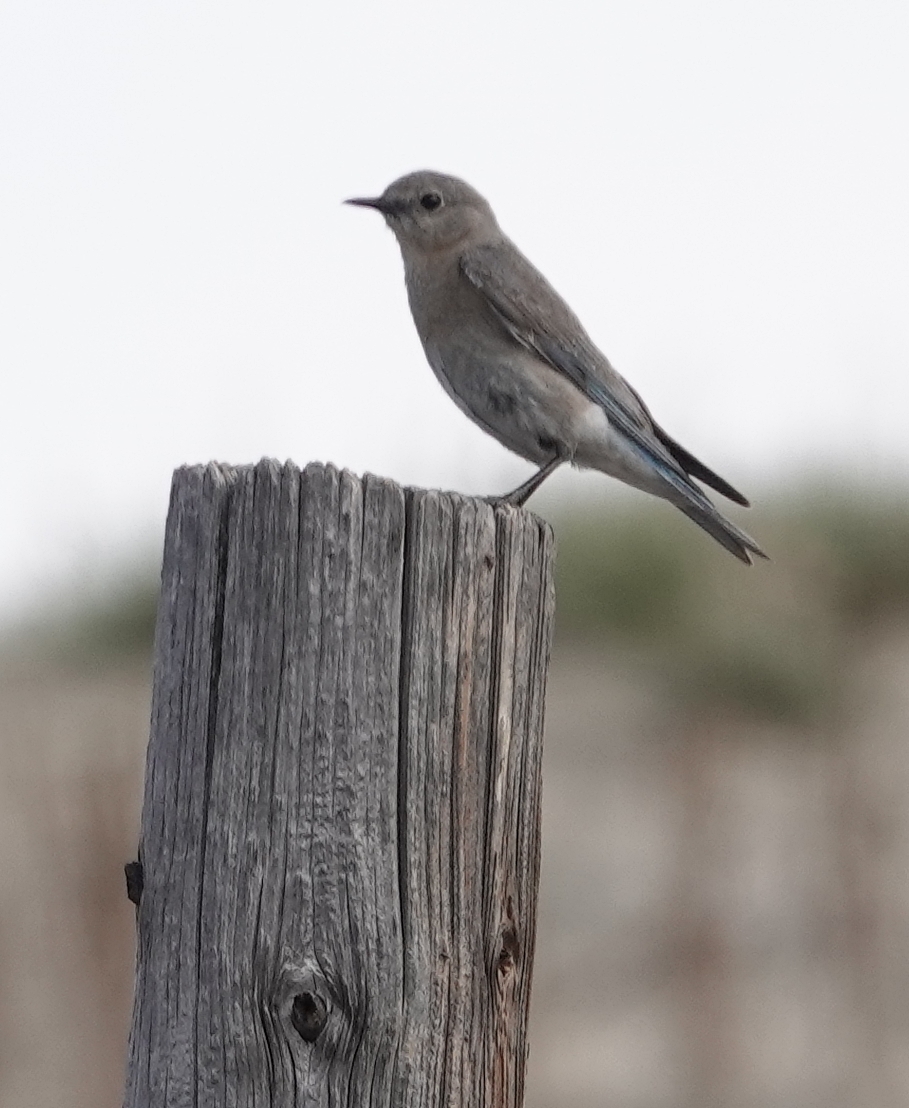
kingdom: Animalia
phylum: Chordata
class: Aves
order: Passeriformes
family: Turdidae
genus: Sialia
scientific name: Sialia currucoides
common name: Mountain bluebird
